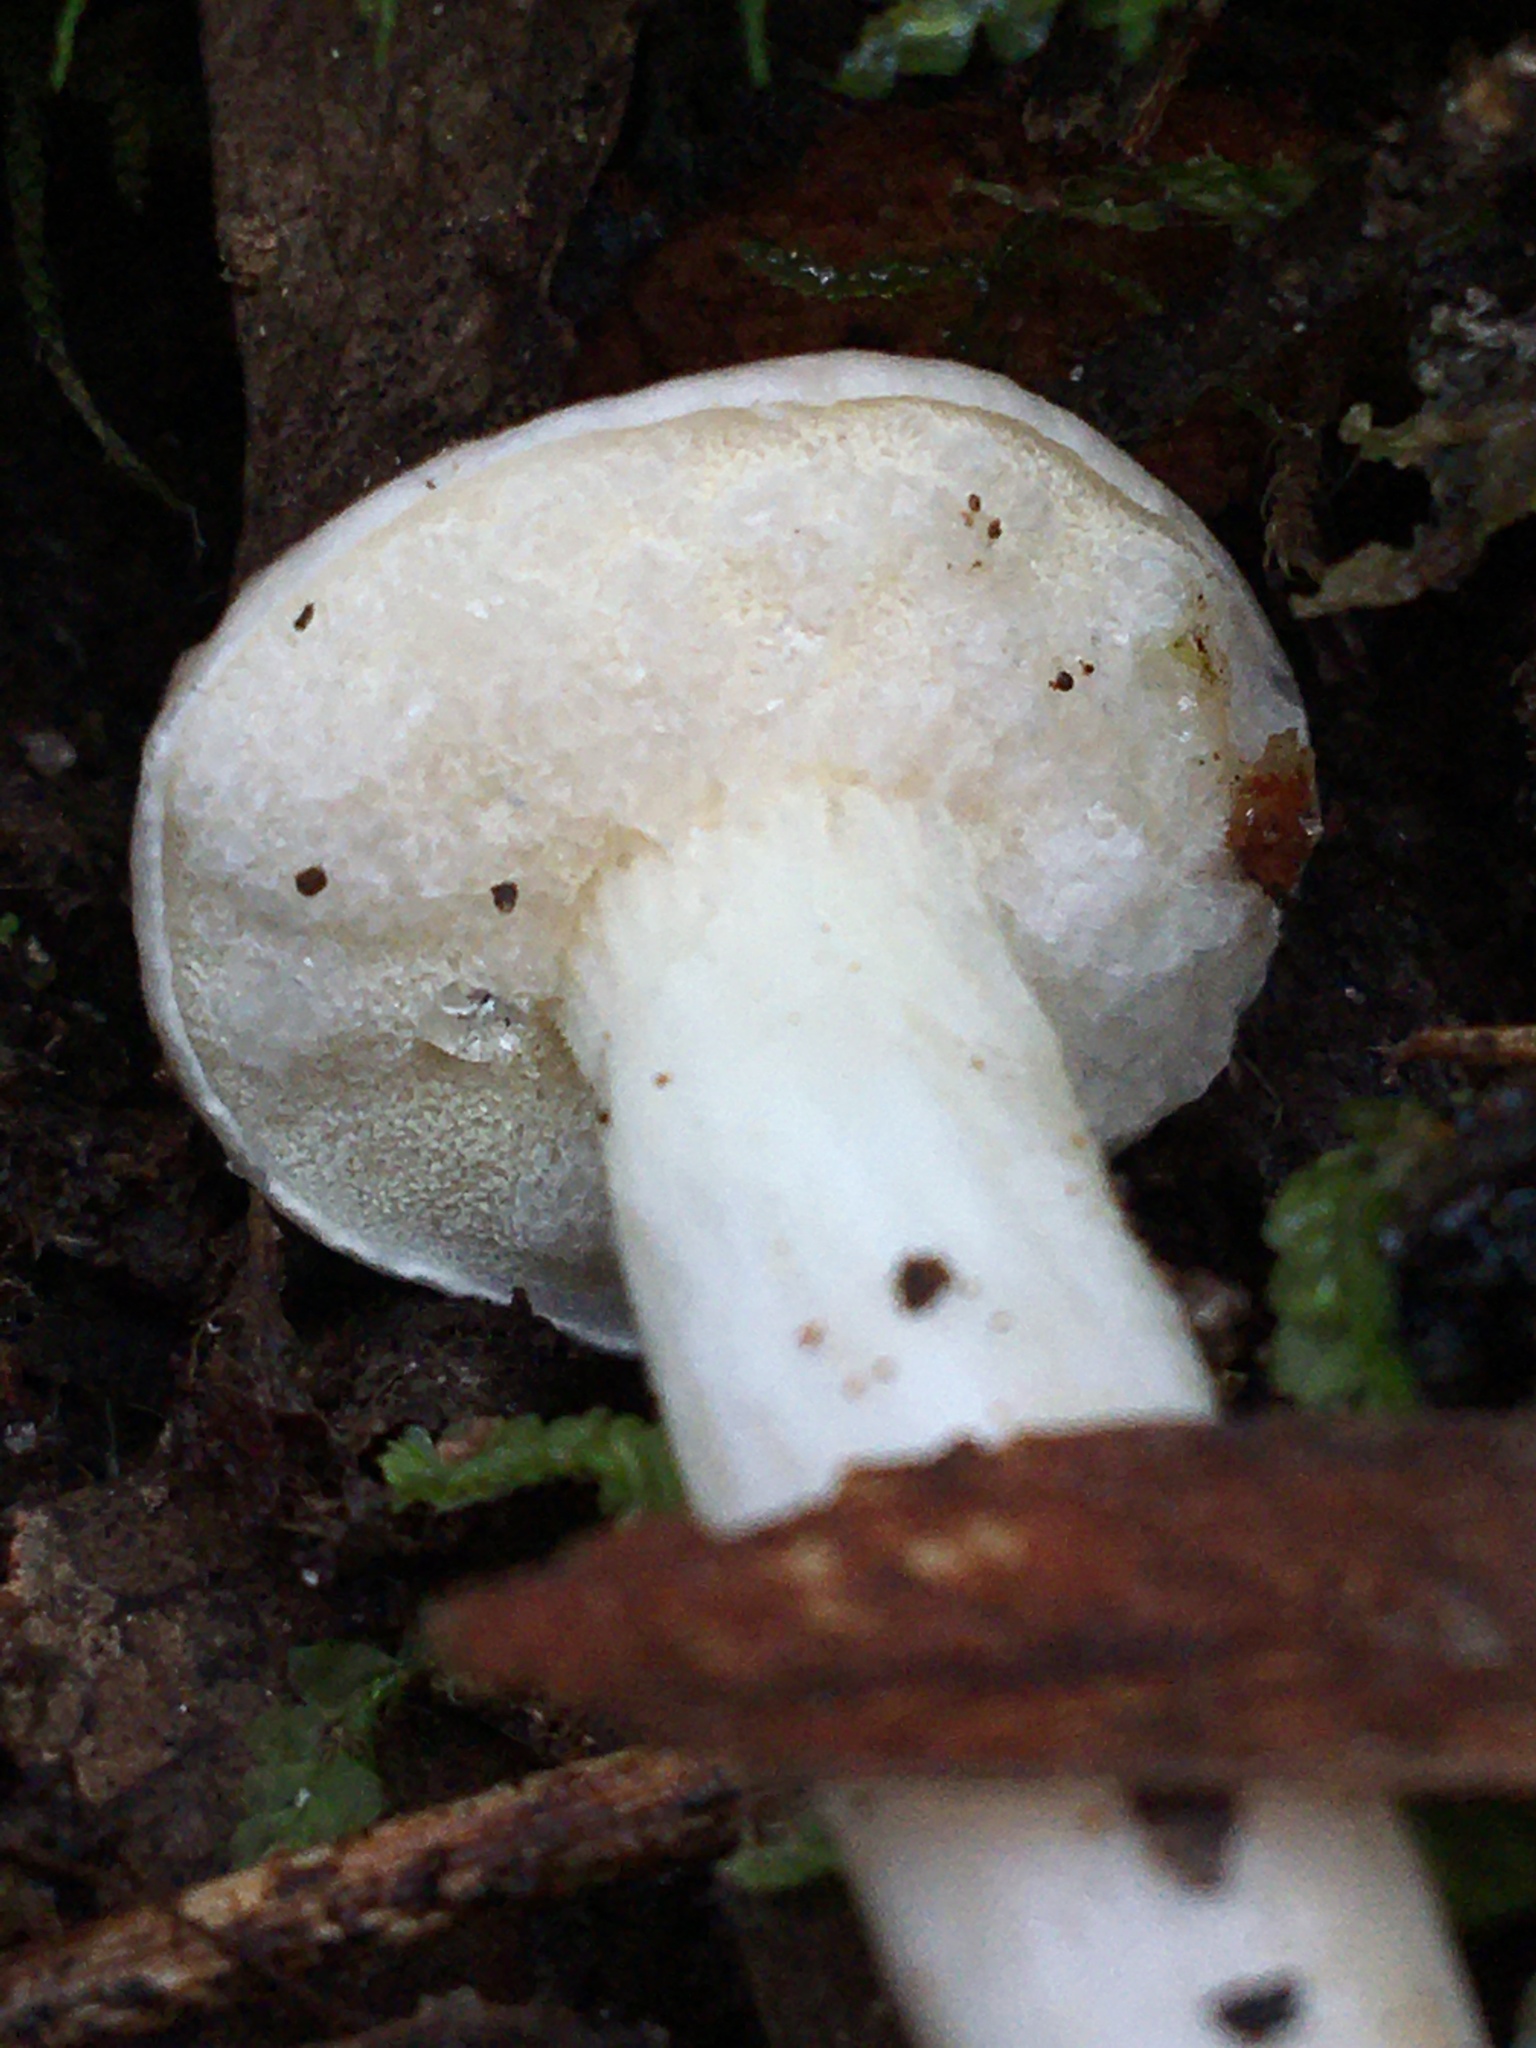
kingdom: Fungi
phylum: Basidiomycota
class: Agaricomycetes
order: Boletales
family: Boletaceae
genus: Fistulinella
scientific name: Fistulinella mollis
